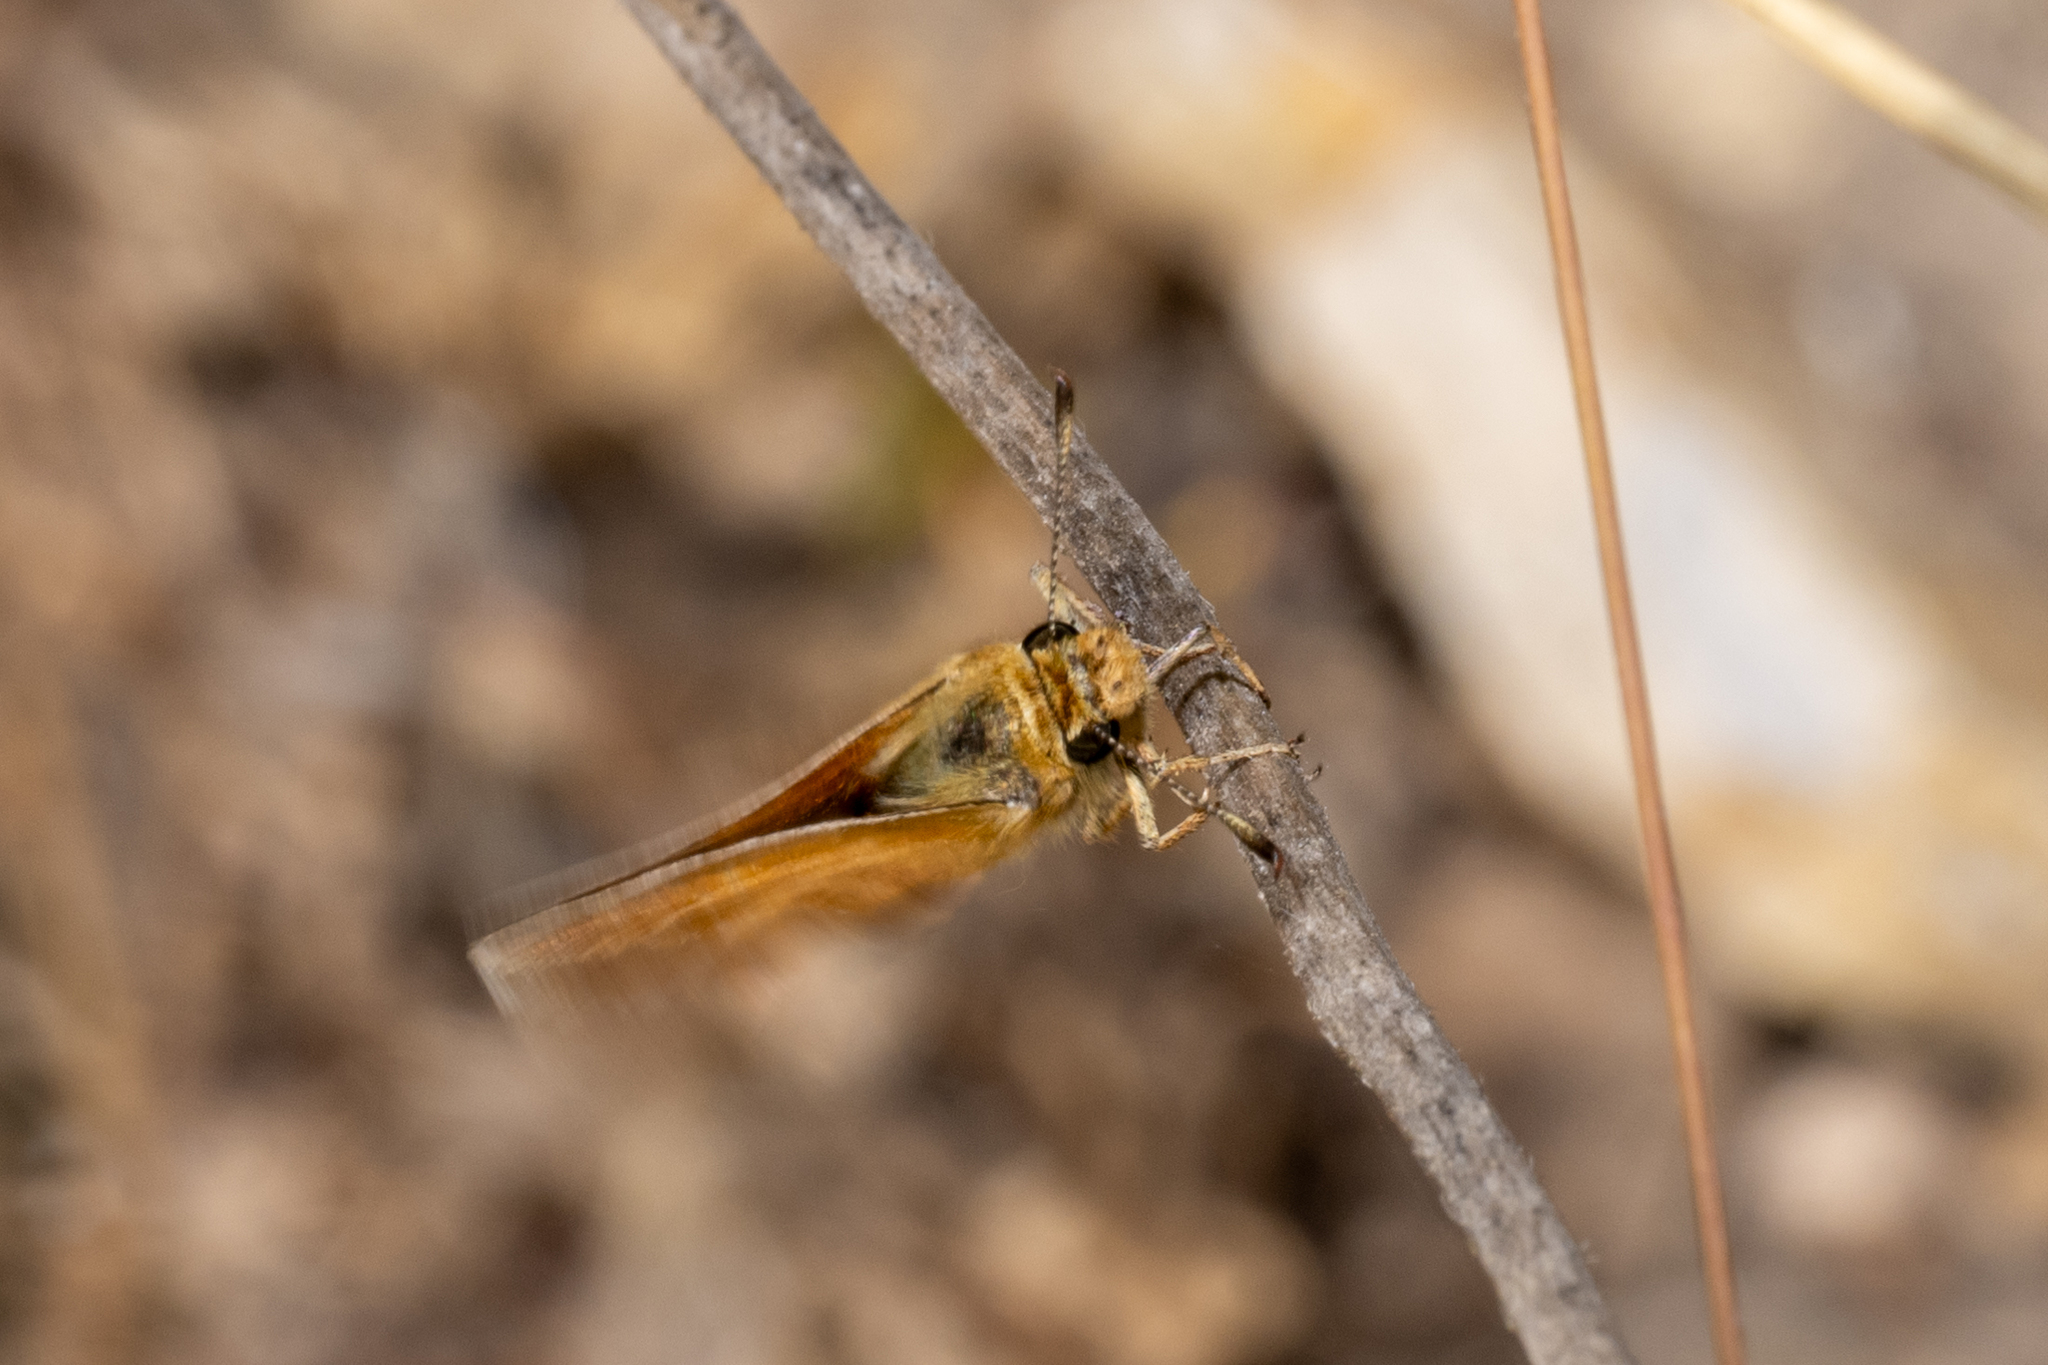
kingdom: Animalia
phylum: Arthropoda
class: Insecta
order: Lepidoptera
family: Hesperiidae
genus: Ochlodes
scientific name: Ochlodes agricola
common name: Rural skipper
